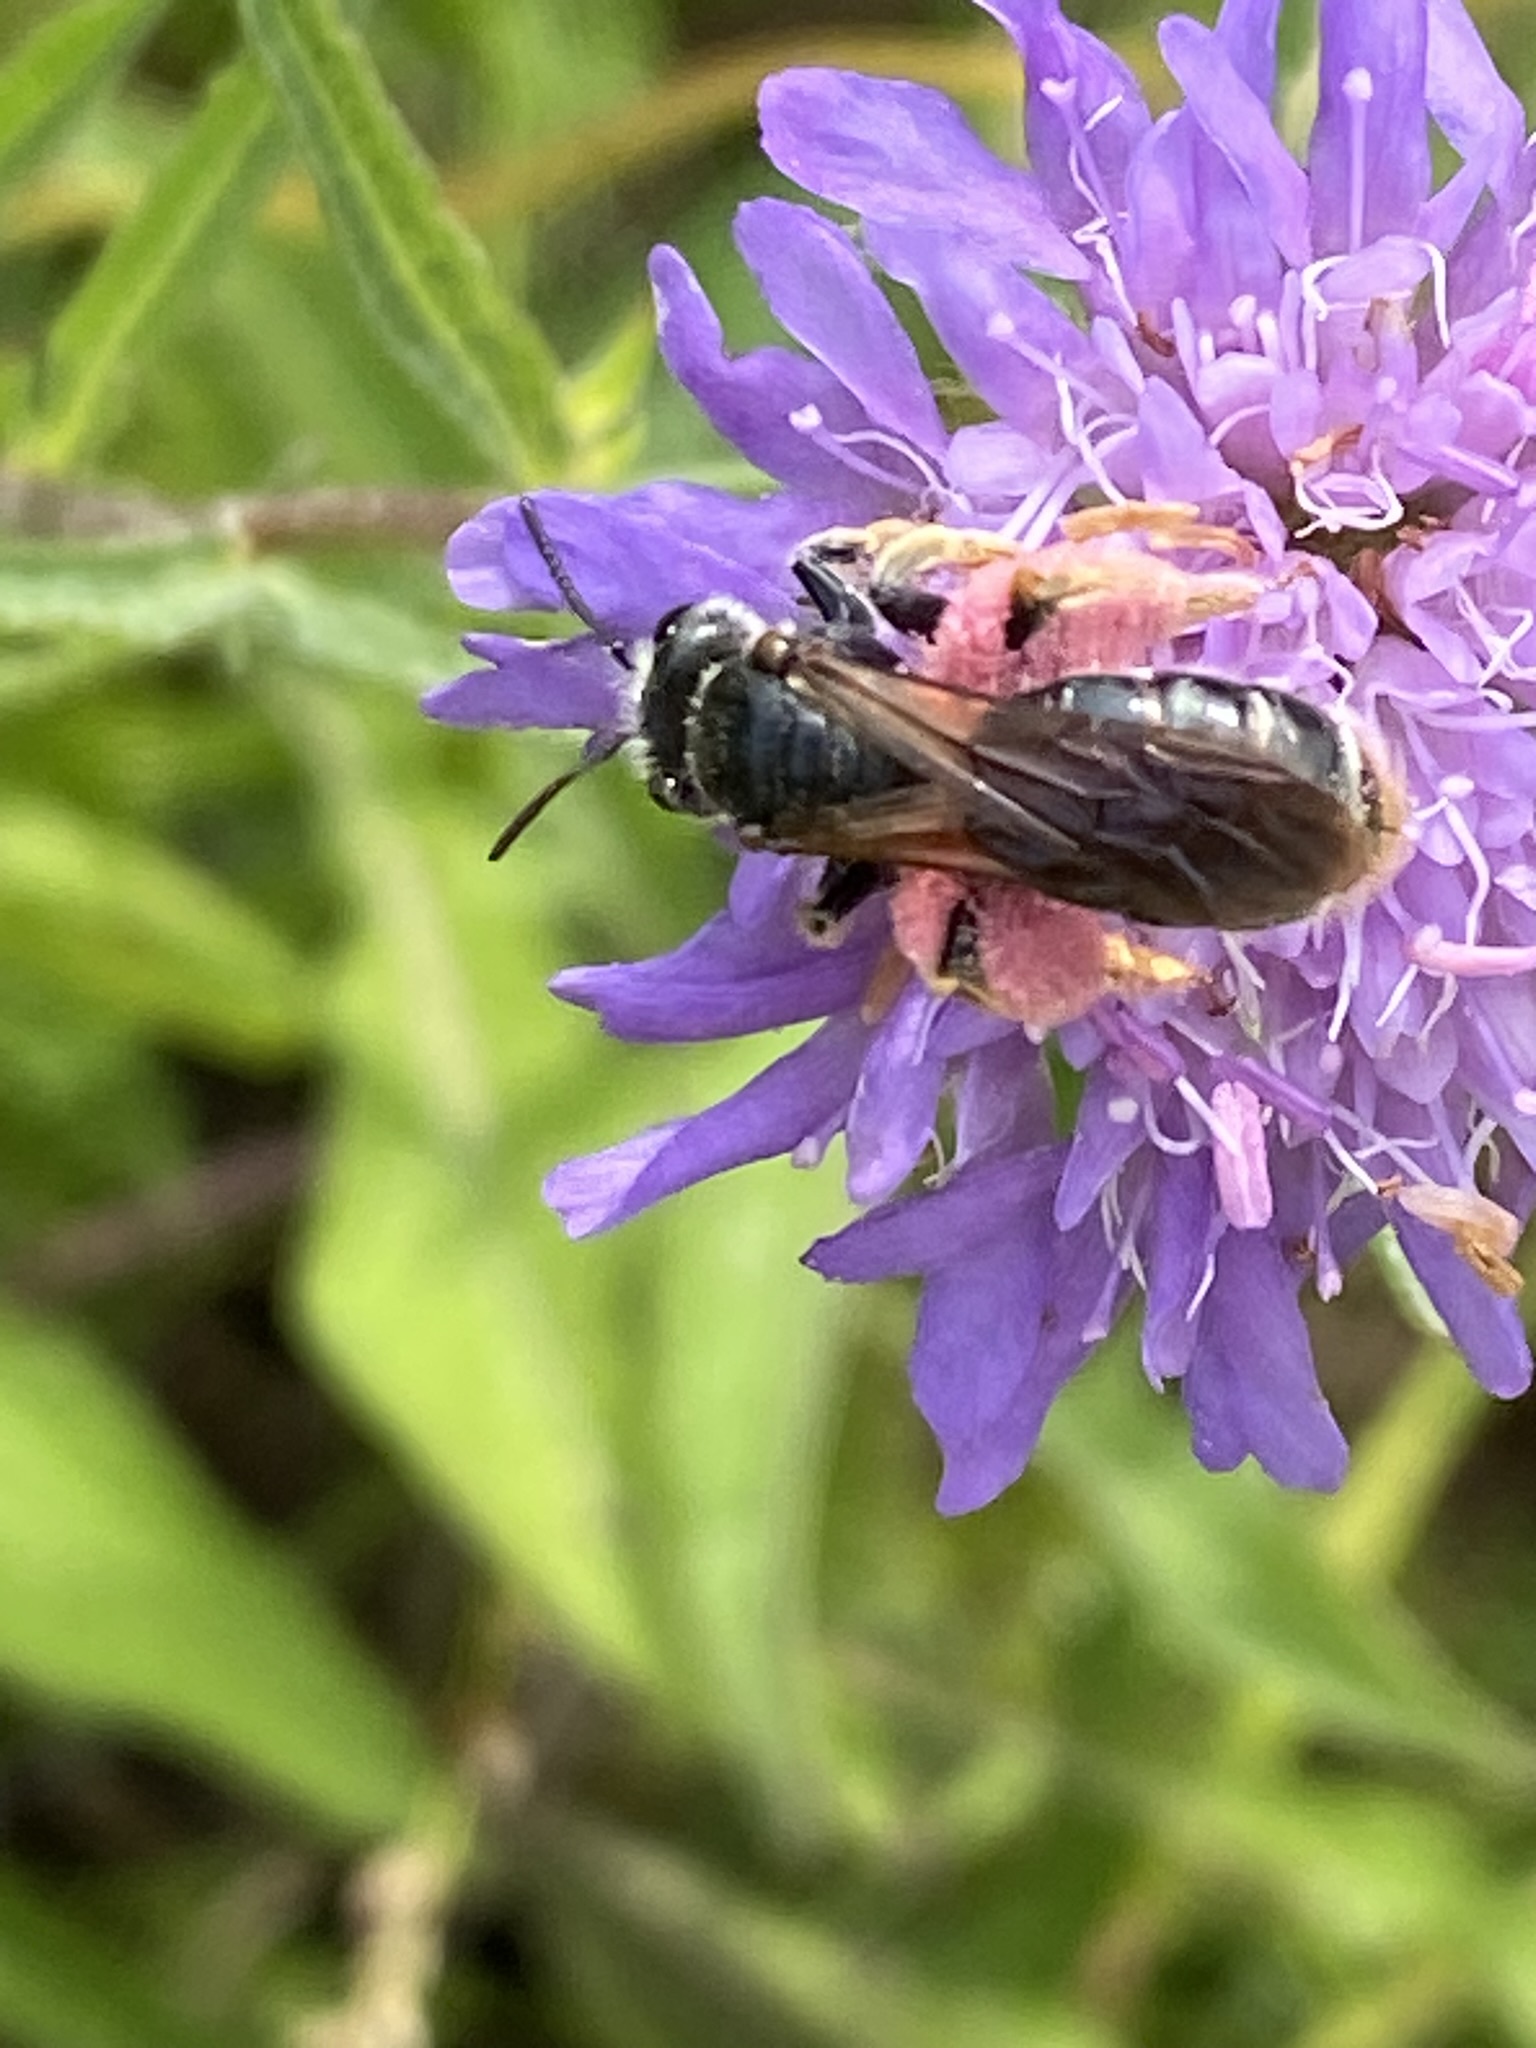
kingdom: Animalia
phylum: Arthropoda
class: Insecta
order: Hymenoptera
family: Andrenidae
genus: Andrena
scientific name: Andrena hattorfiana
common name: Large scabious mining bee
